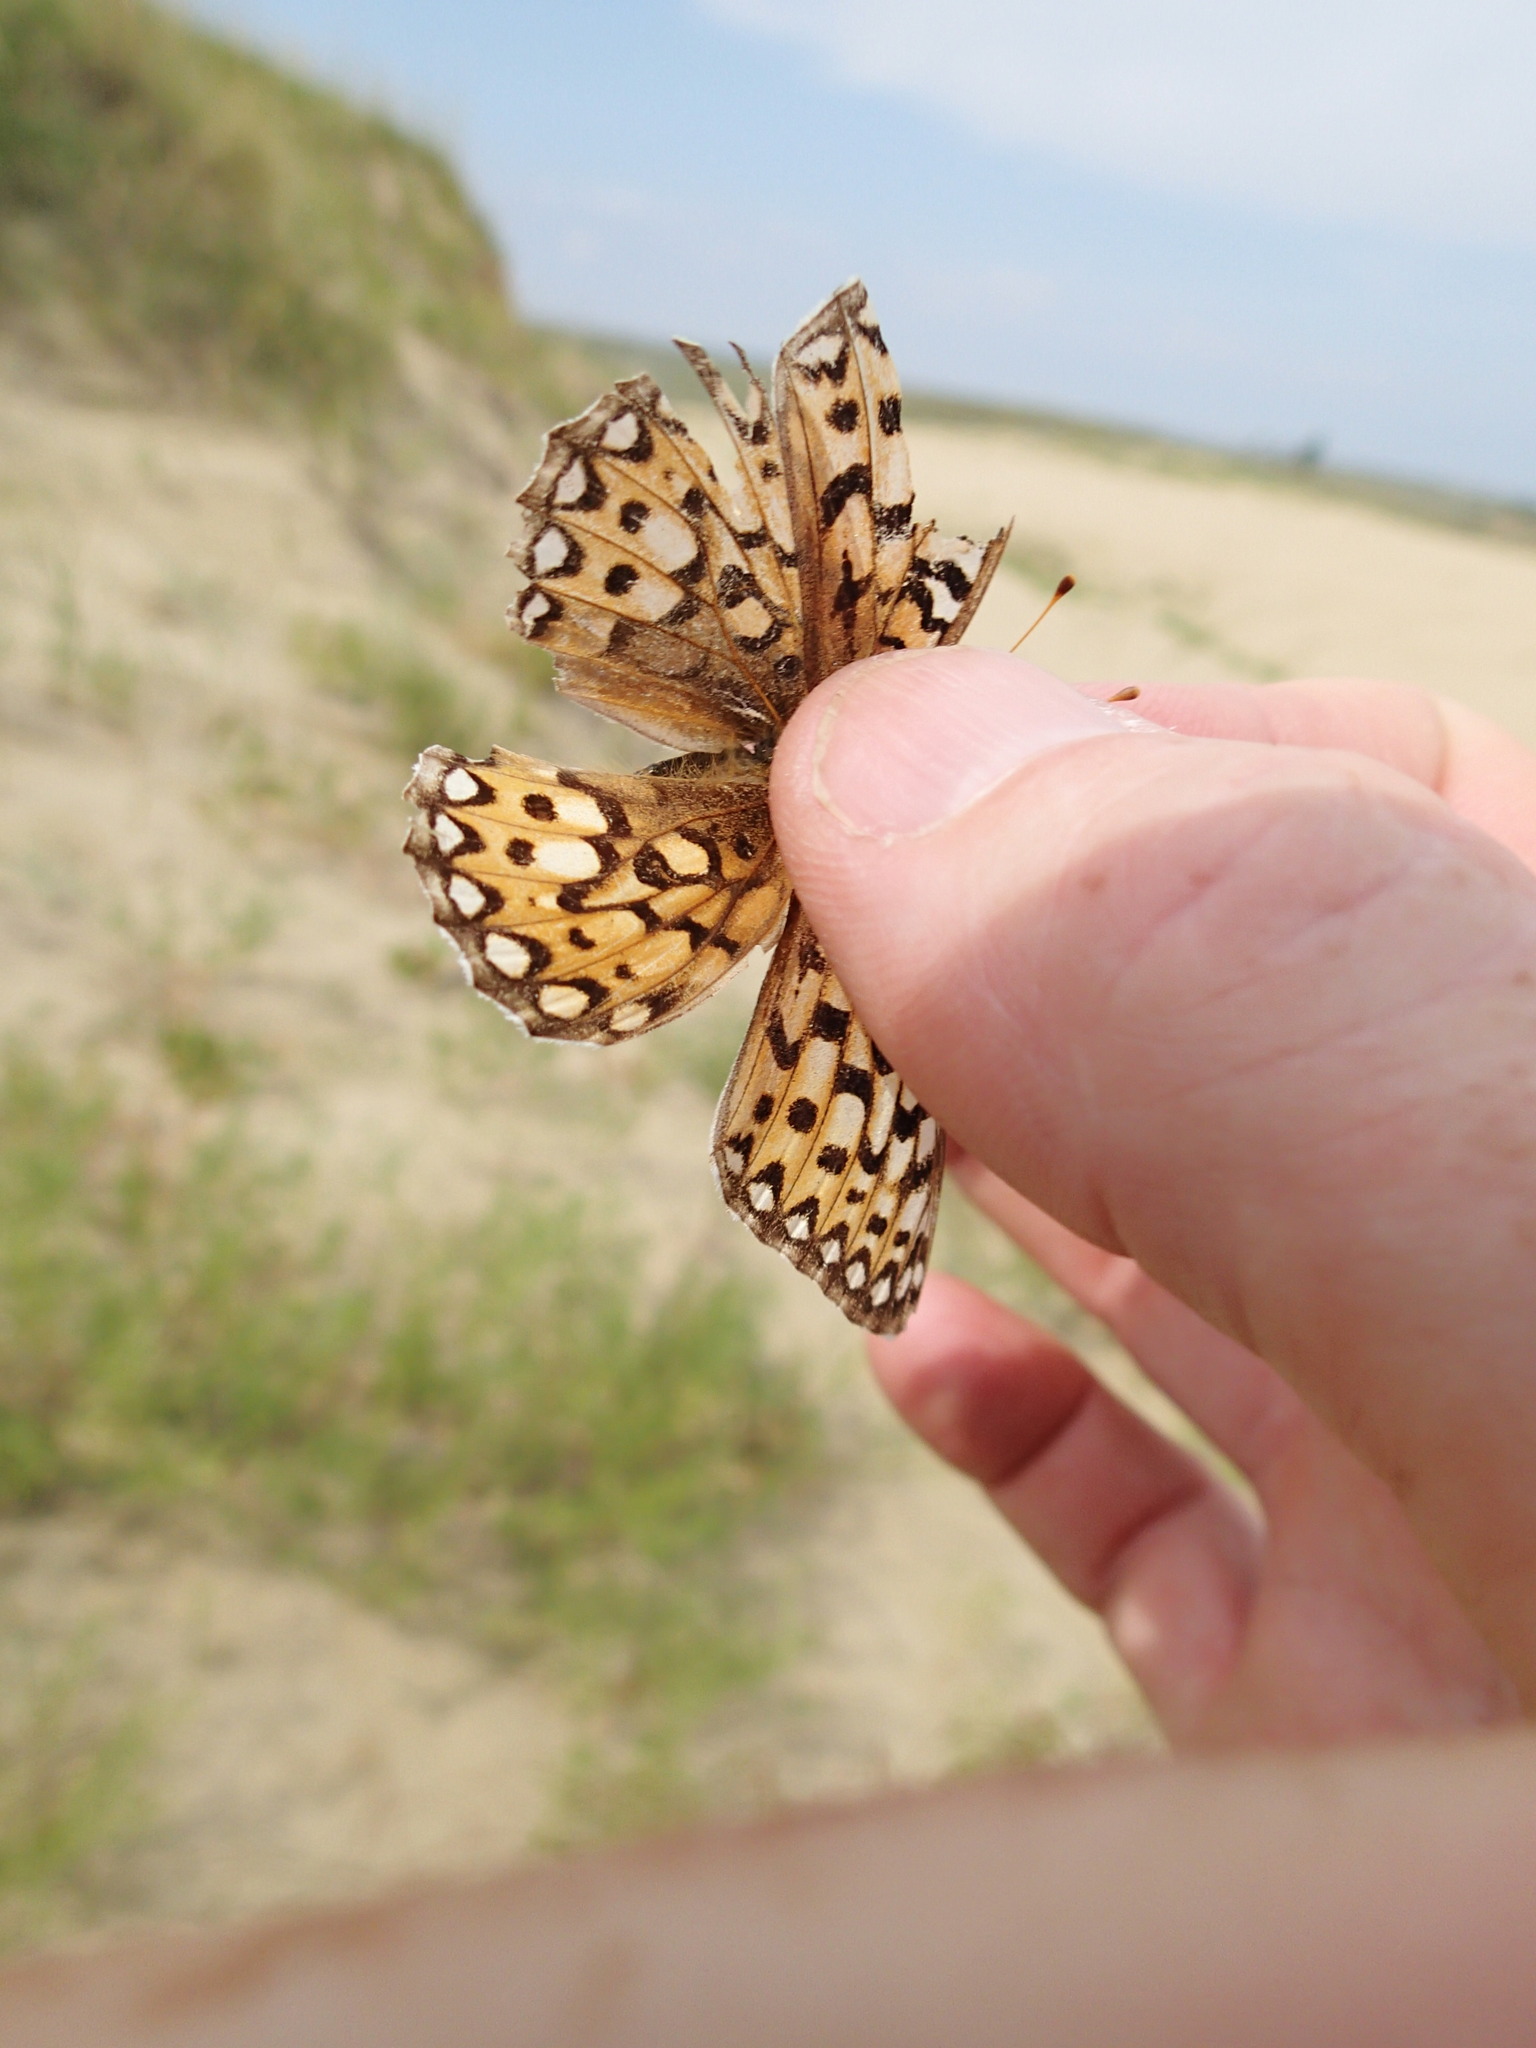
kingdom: Animalia
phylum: Arthropoda
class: Insecta
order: Lepidoptera
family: Nymphalidae
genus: Speyeria
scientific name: Speyeria callippe
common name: Callippe fritillary
